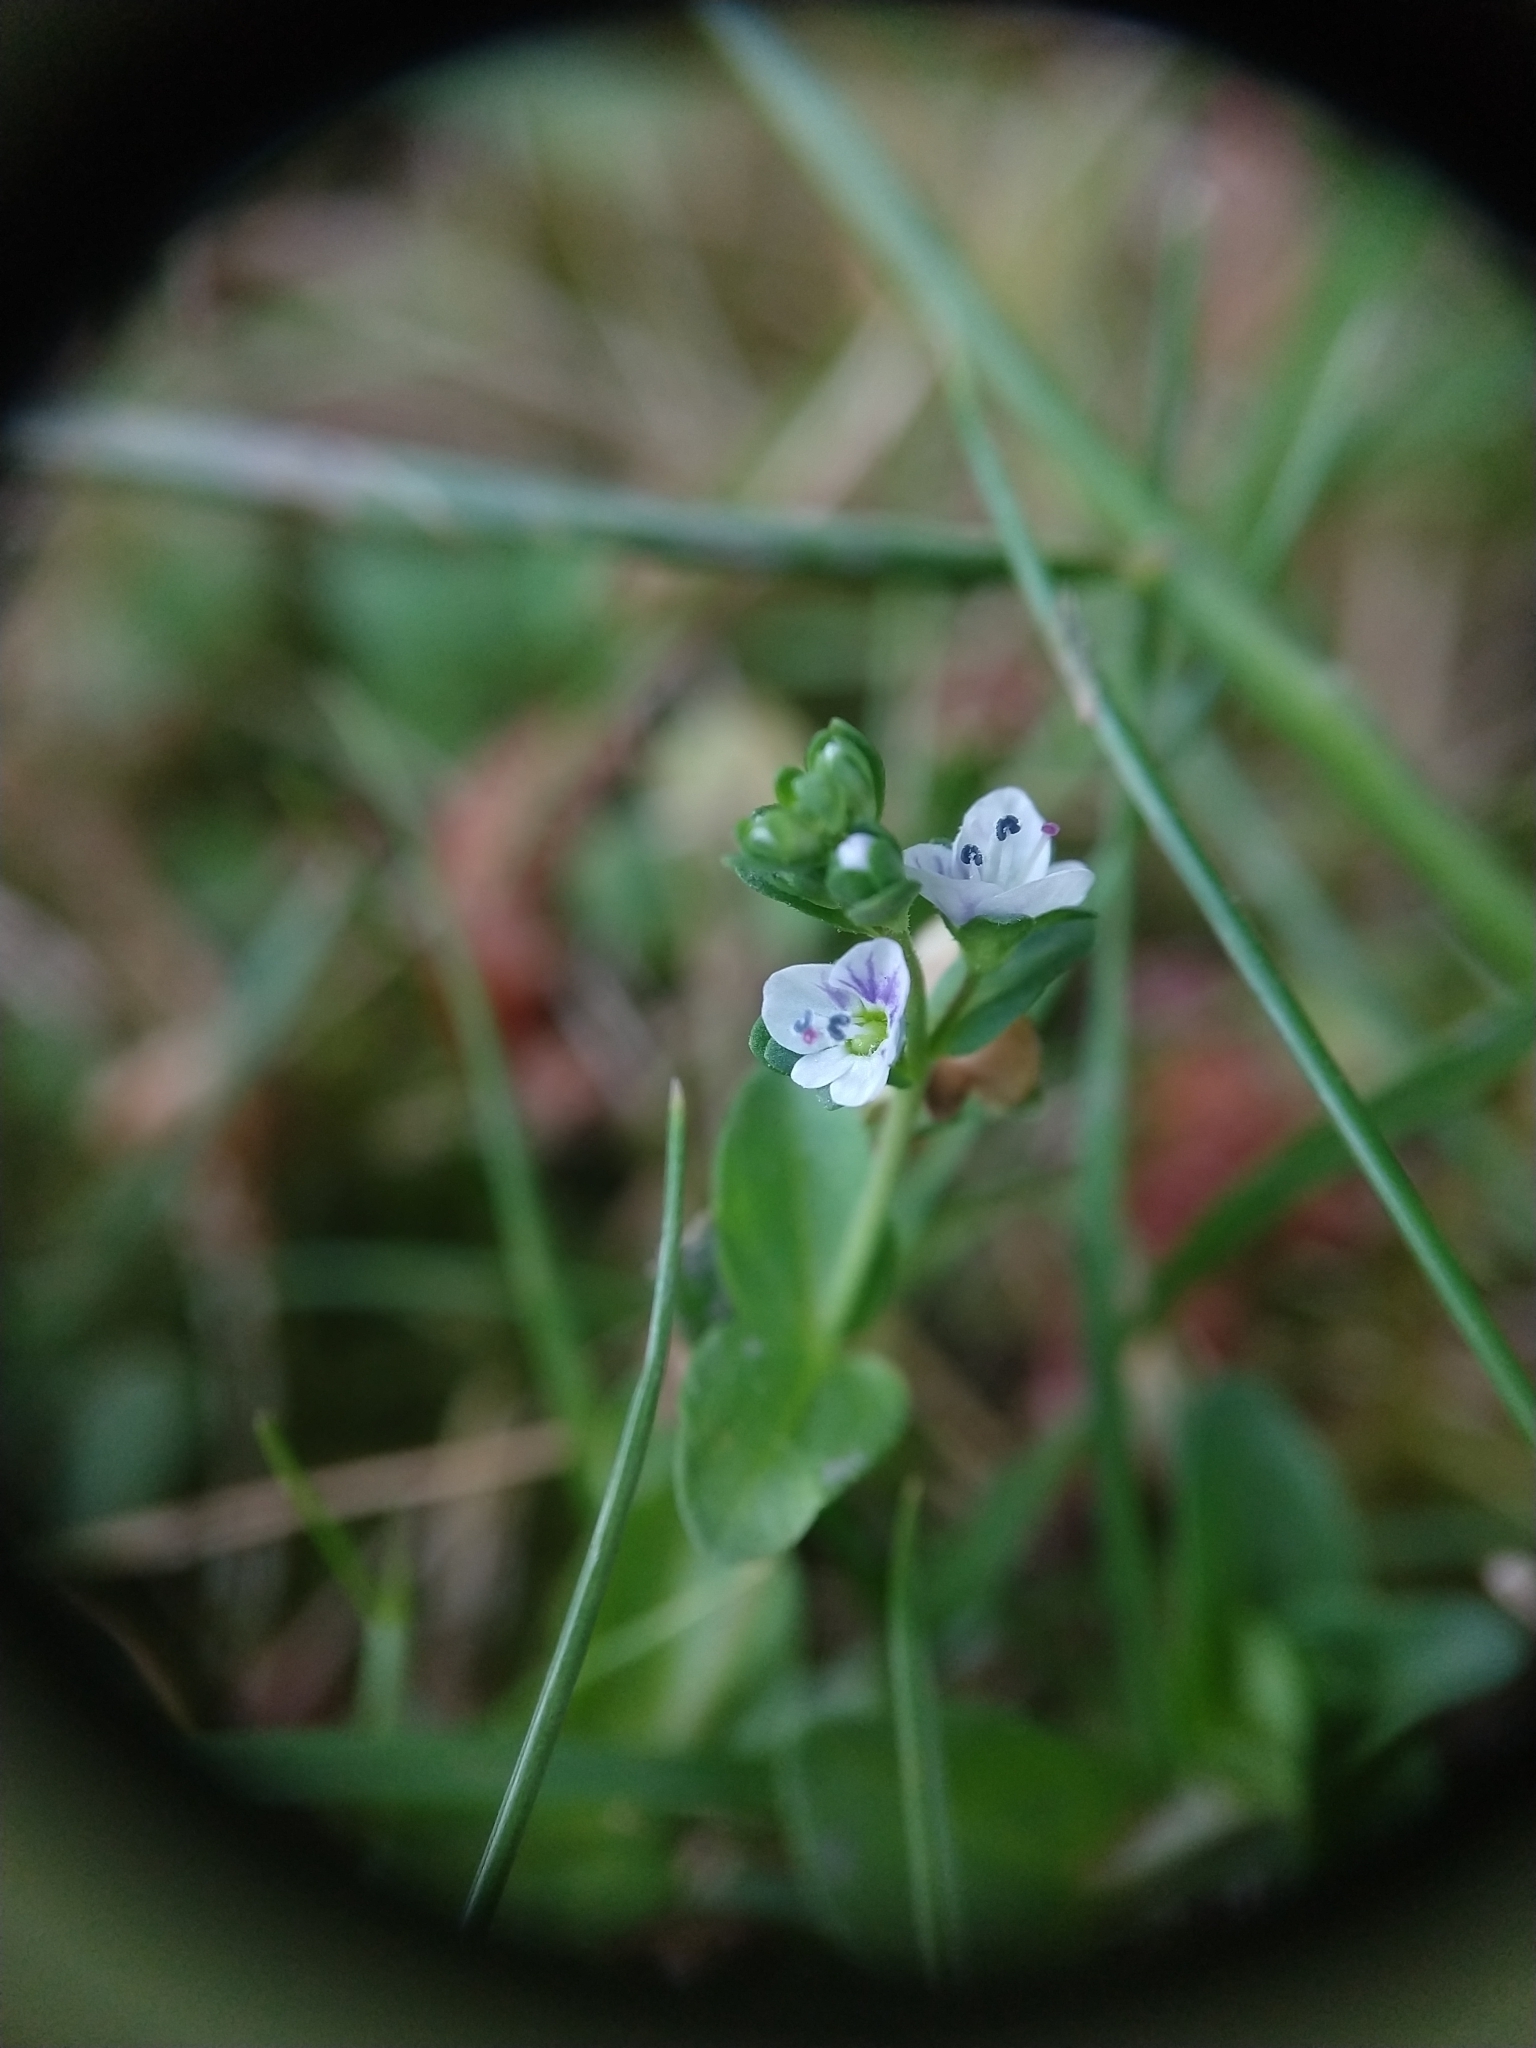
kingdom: Plantae
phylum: Tracheophyta
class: Magnoliopsida
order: Lamiales
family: Plantaginaceae
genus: Veronica
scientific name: Veronica serpyllifolia
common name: Thyme-leaved speedwell
